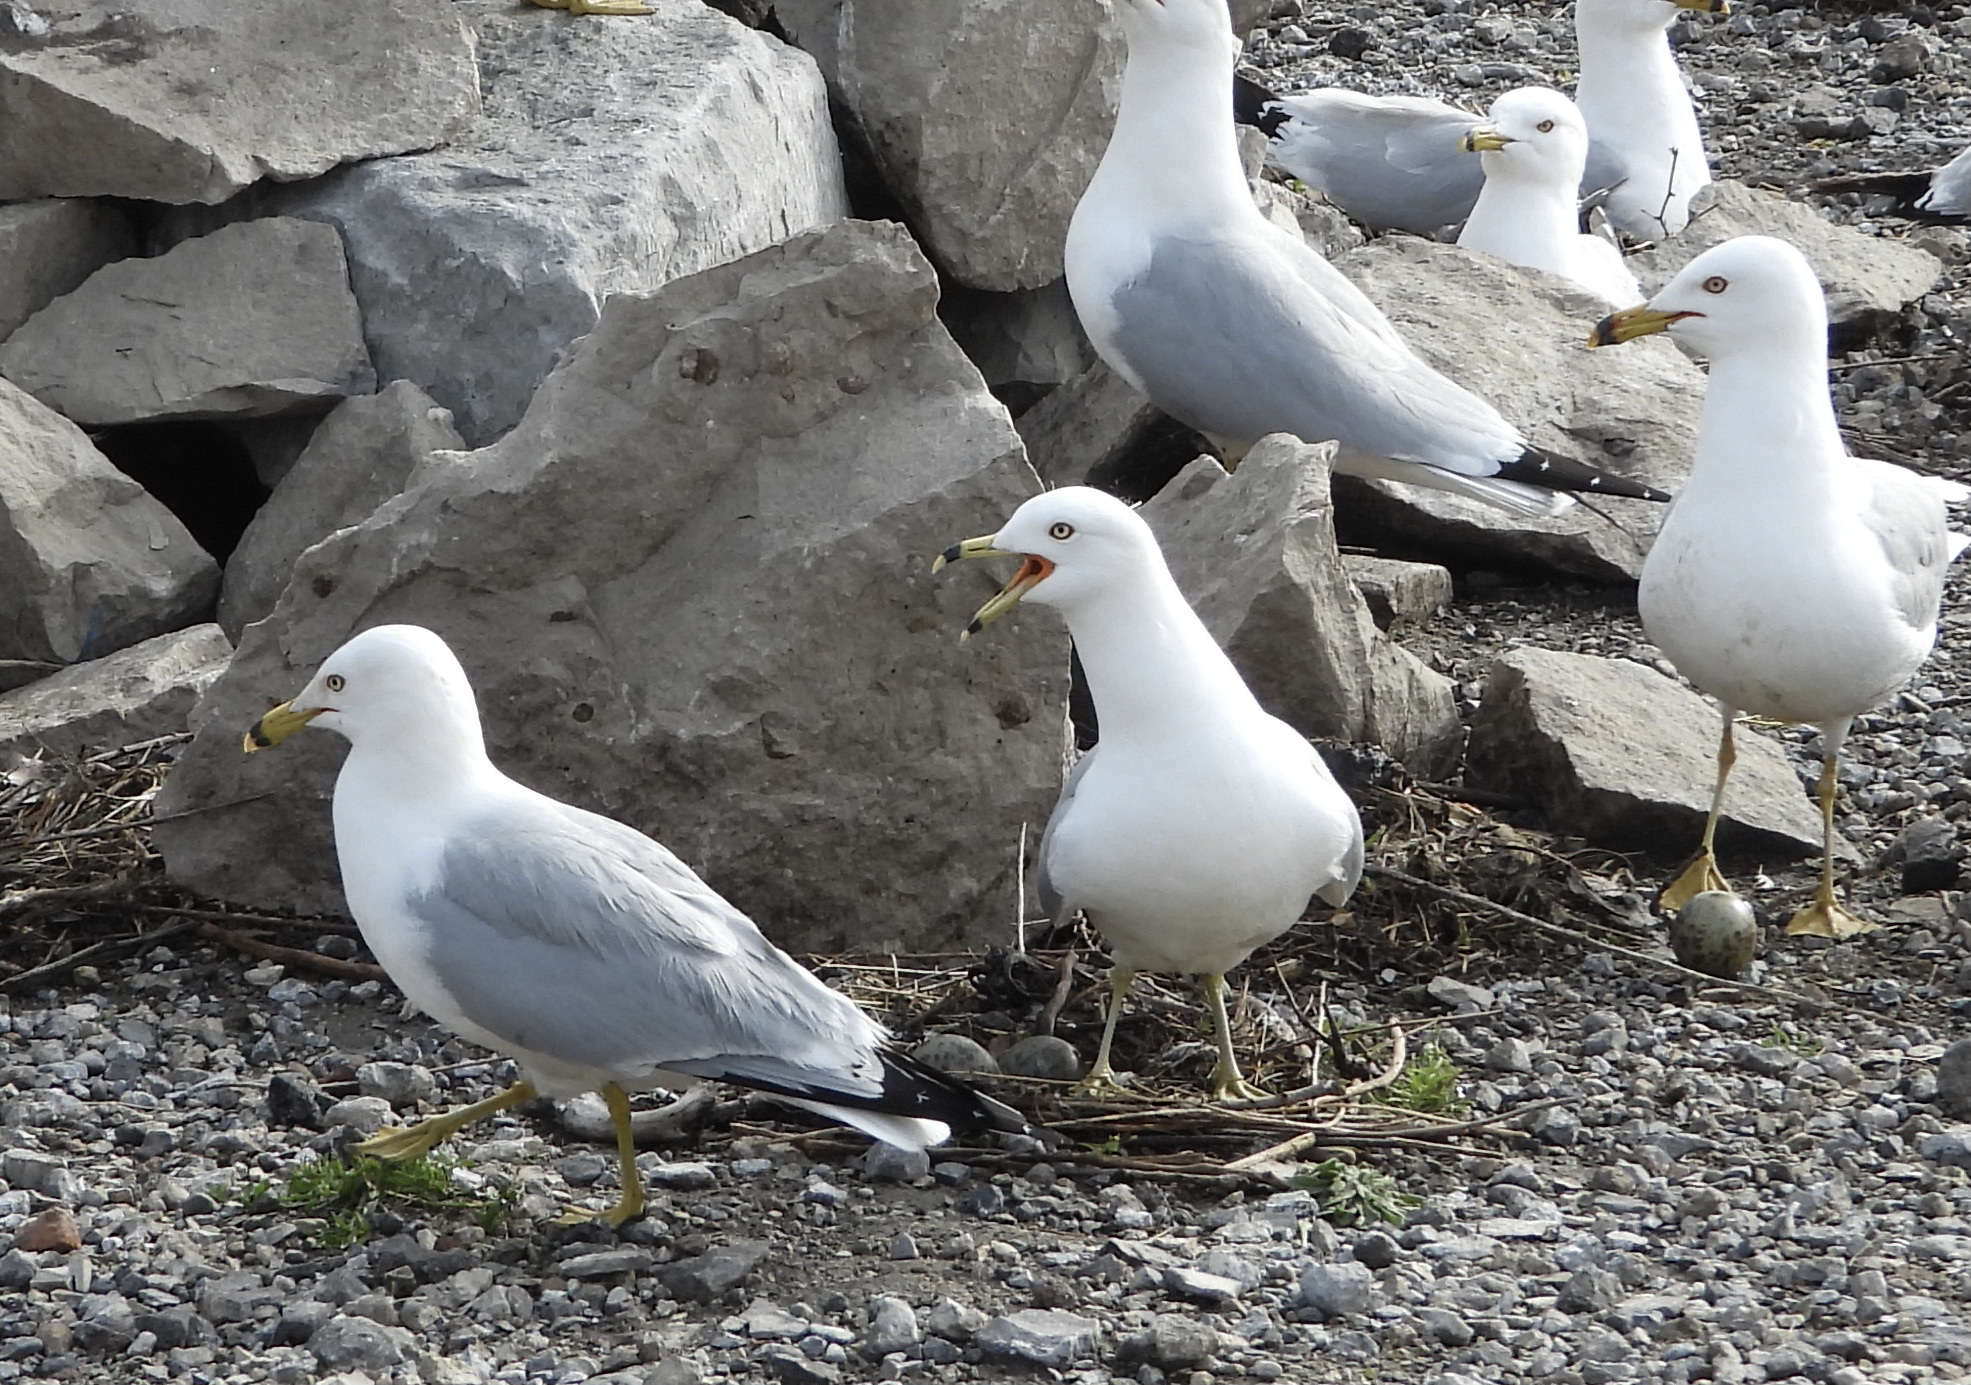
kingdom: Animalia
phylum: Chordata
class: Aves
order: Charadriiformes
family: Laridae
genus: Larus
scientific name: Larus delawarensis
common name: Ring-billed gull
